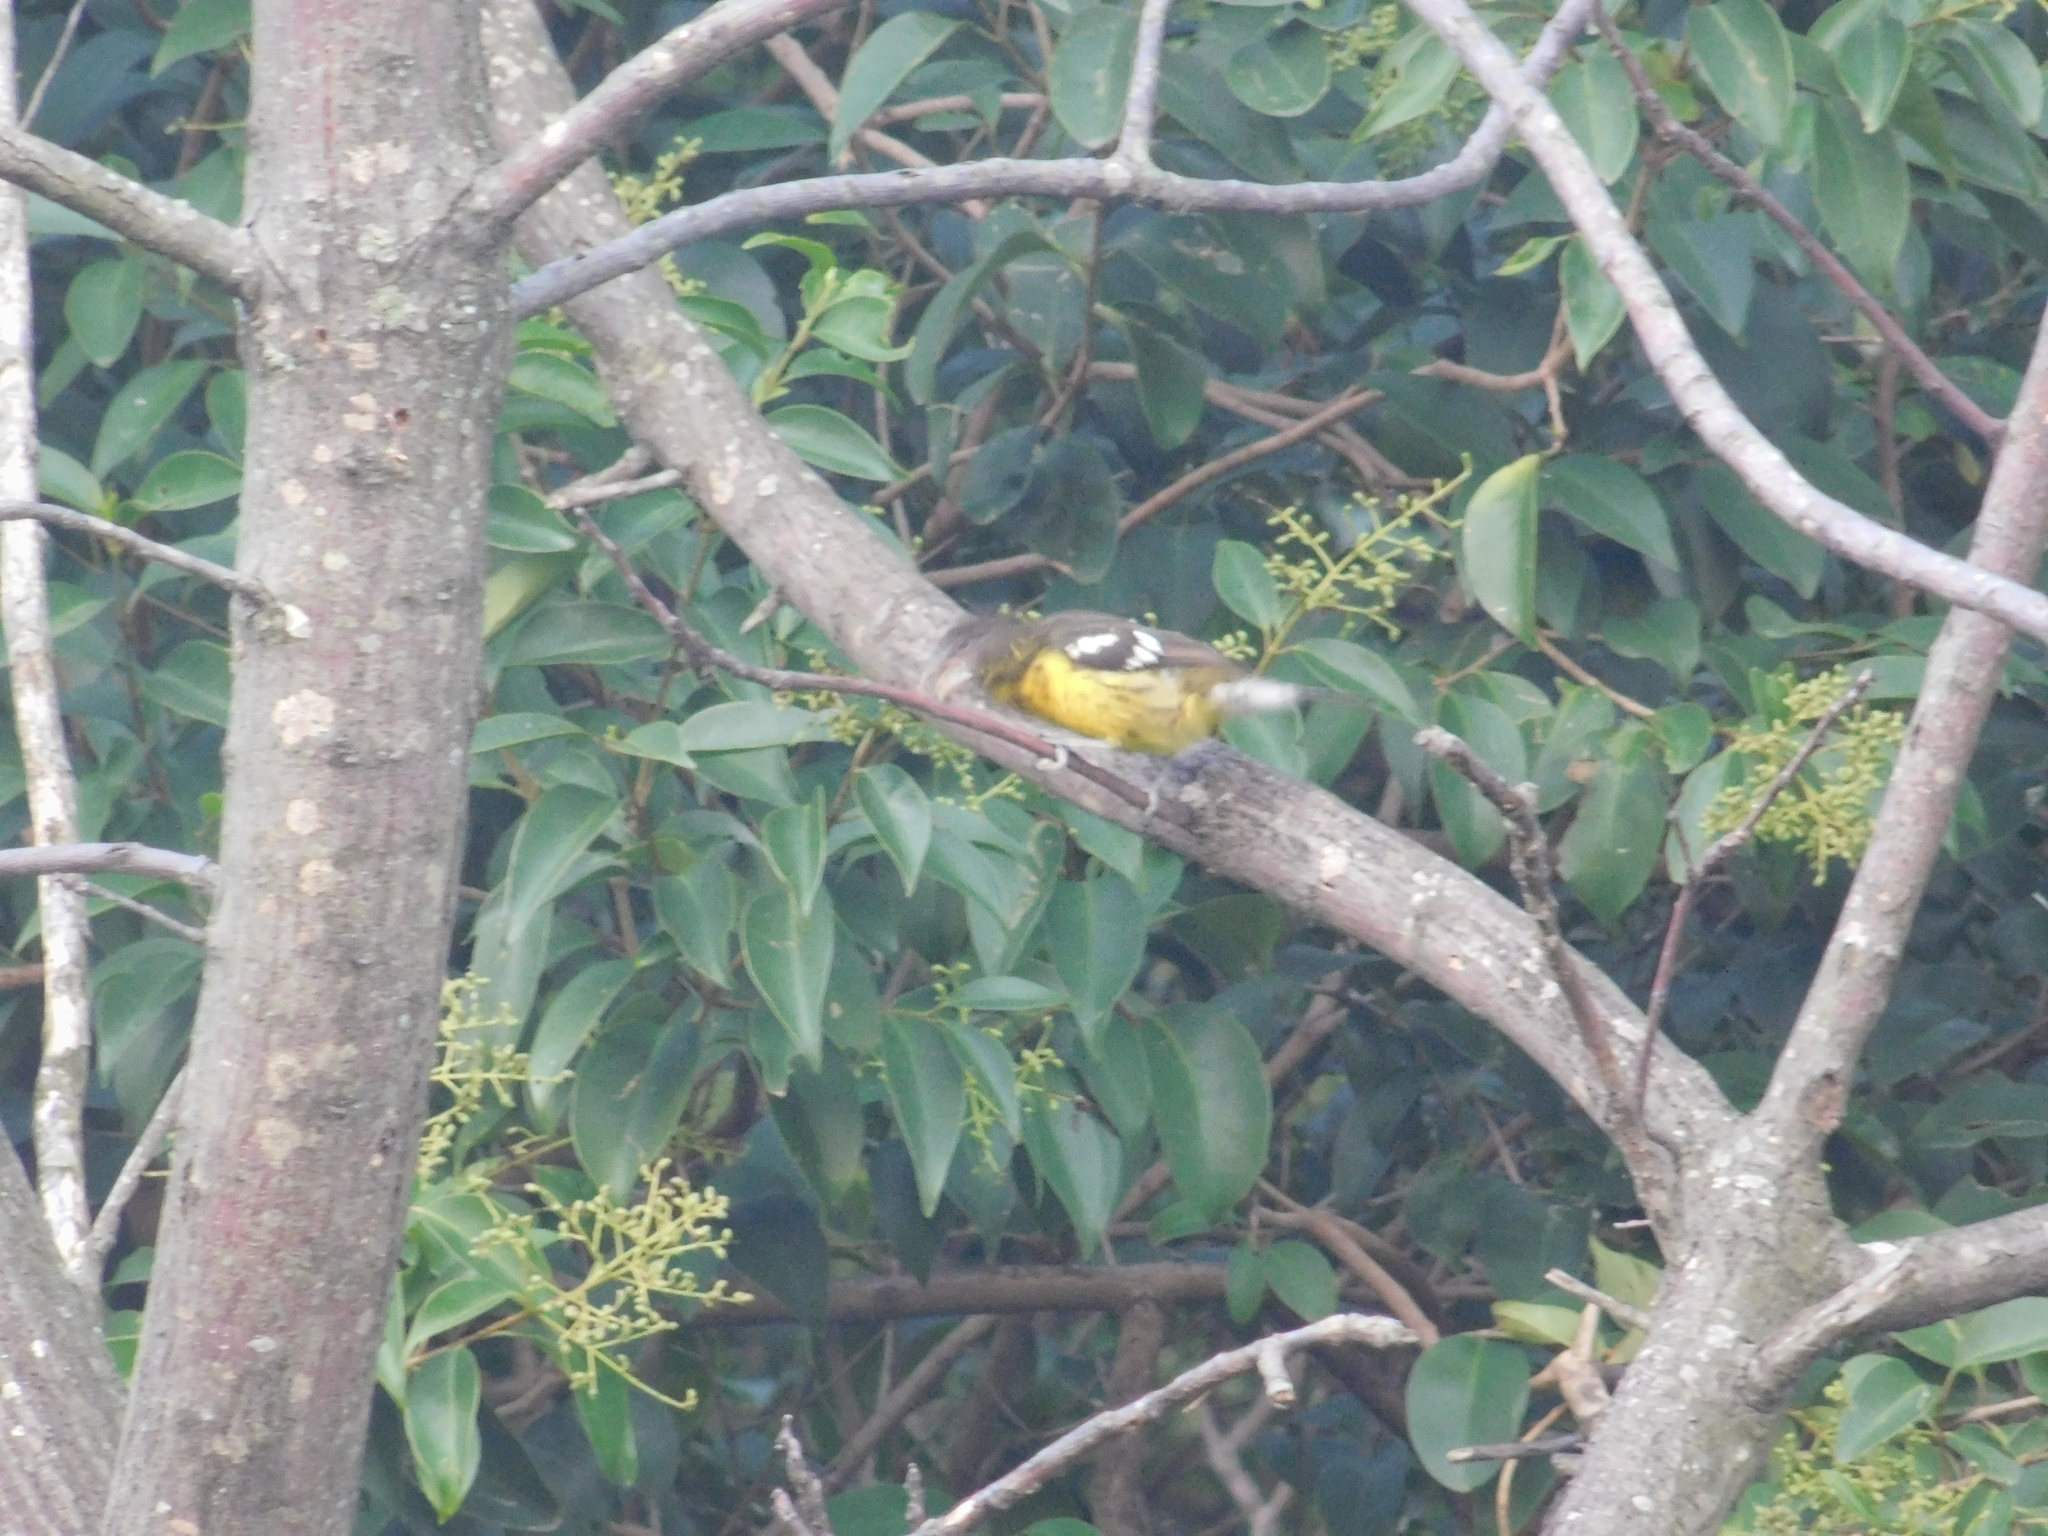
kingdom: Animalia
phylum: Chordata
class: Aves
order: Passeriformes
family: Cardinalidae
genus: Pheucticus
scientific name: Pheucticus aureoventris
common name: Black-backed grosbeak
